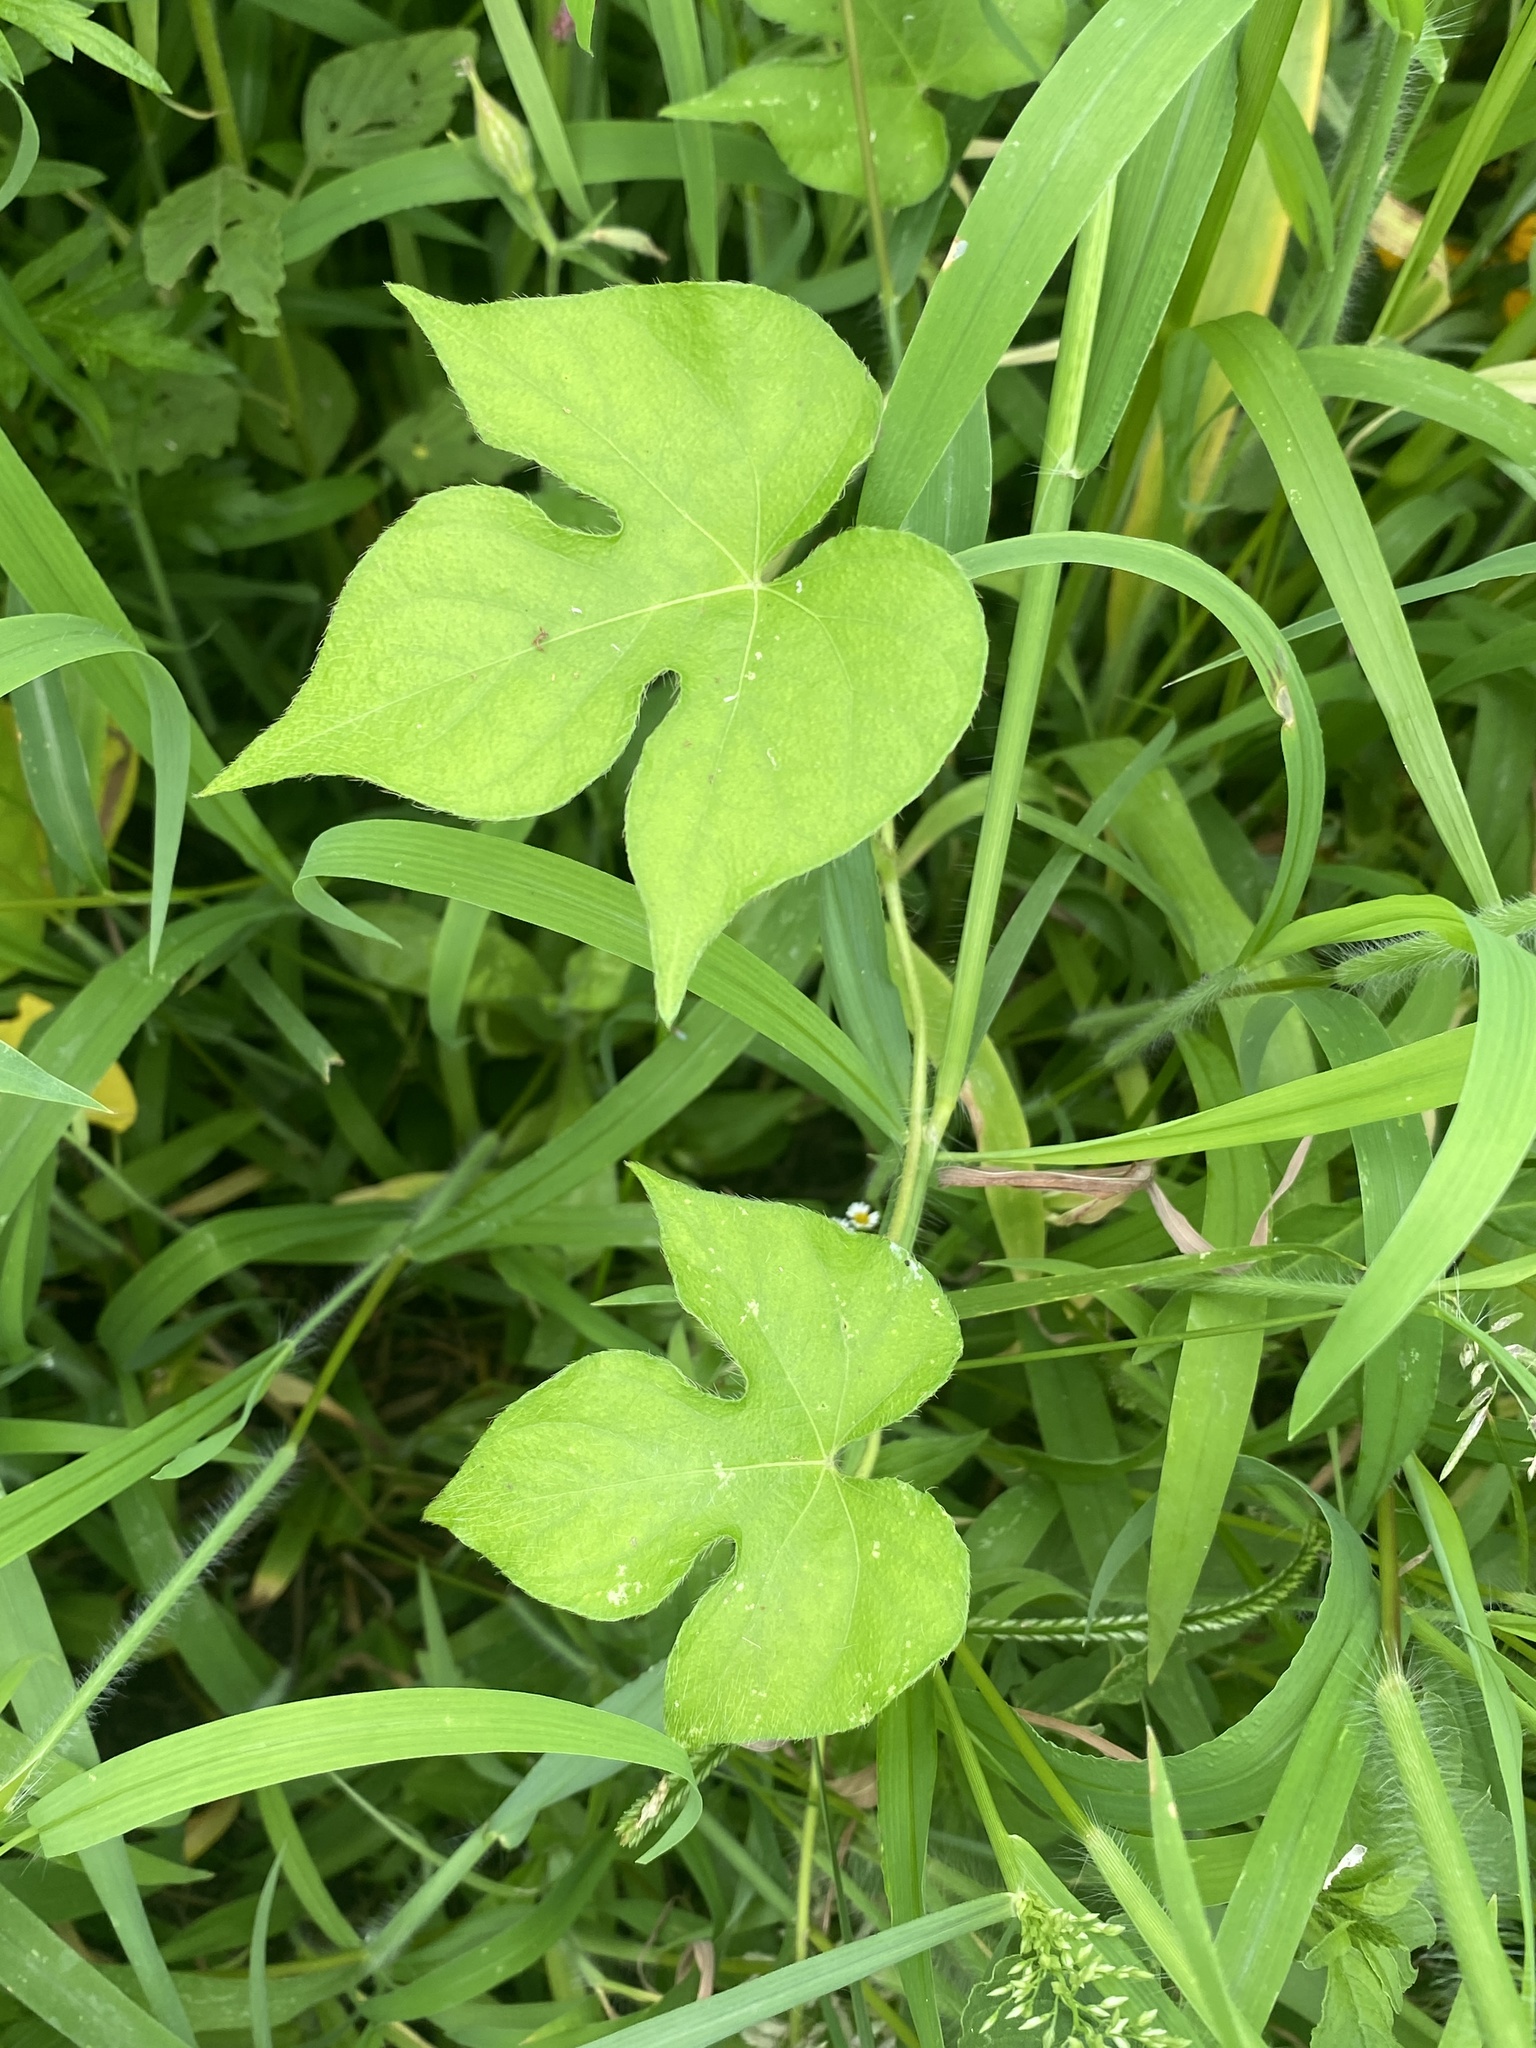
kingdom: Plantae
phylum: Tracheophyta
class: Magnoliopsida
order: Solanales
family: Convolvulaceae
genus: Ipomoea
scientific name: Ipomoea hederacea
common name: Ivy-leaved morning-glory
